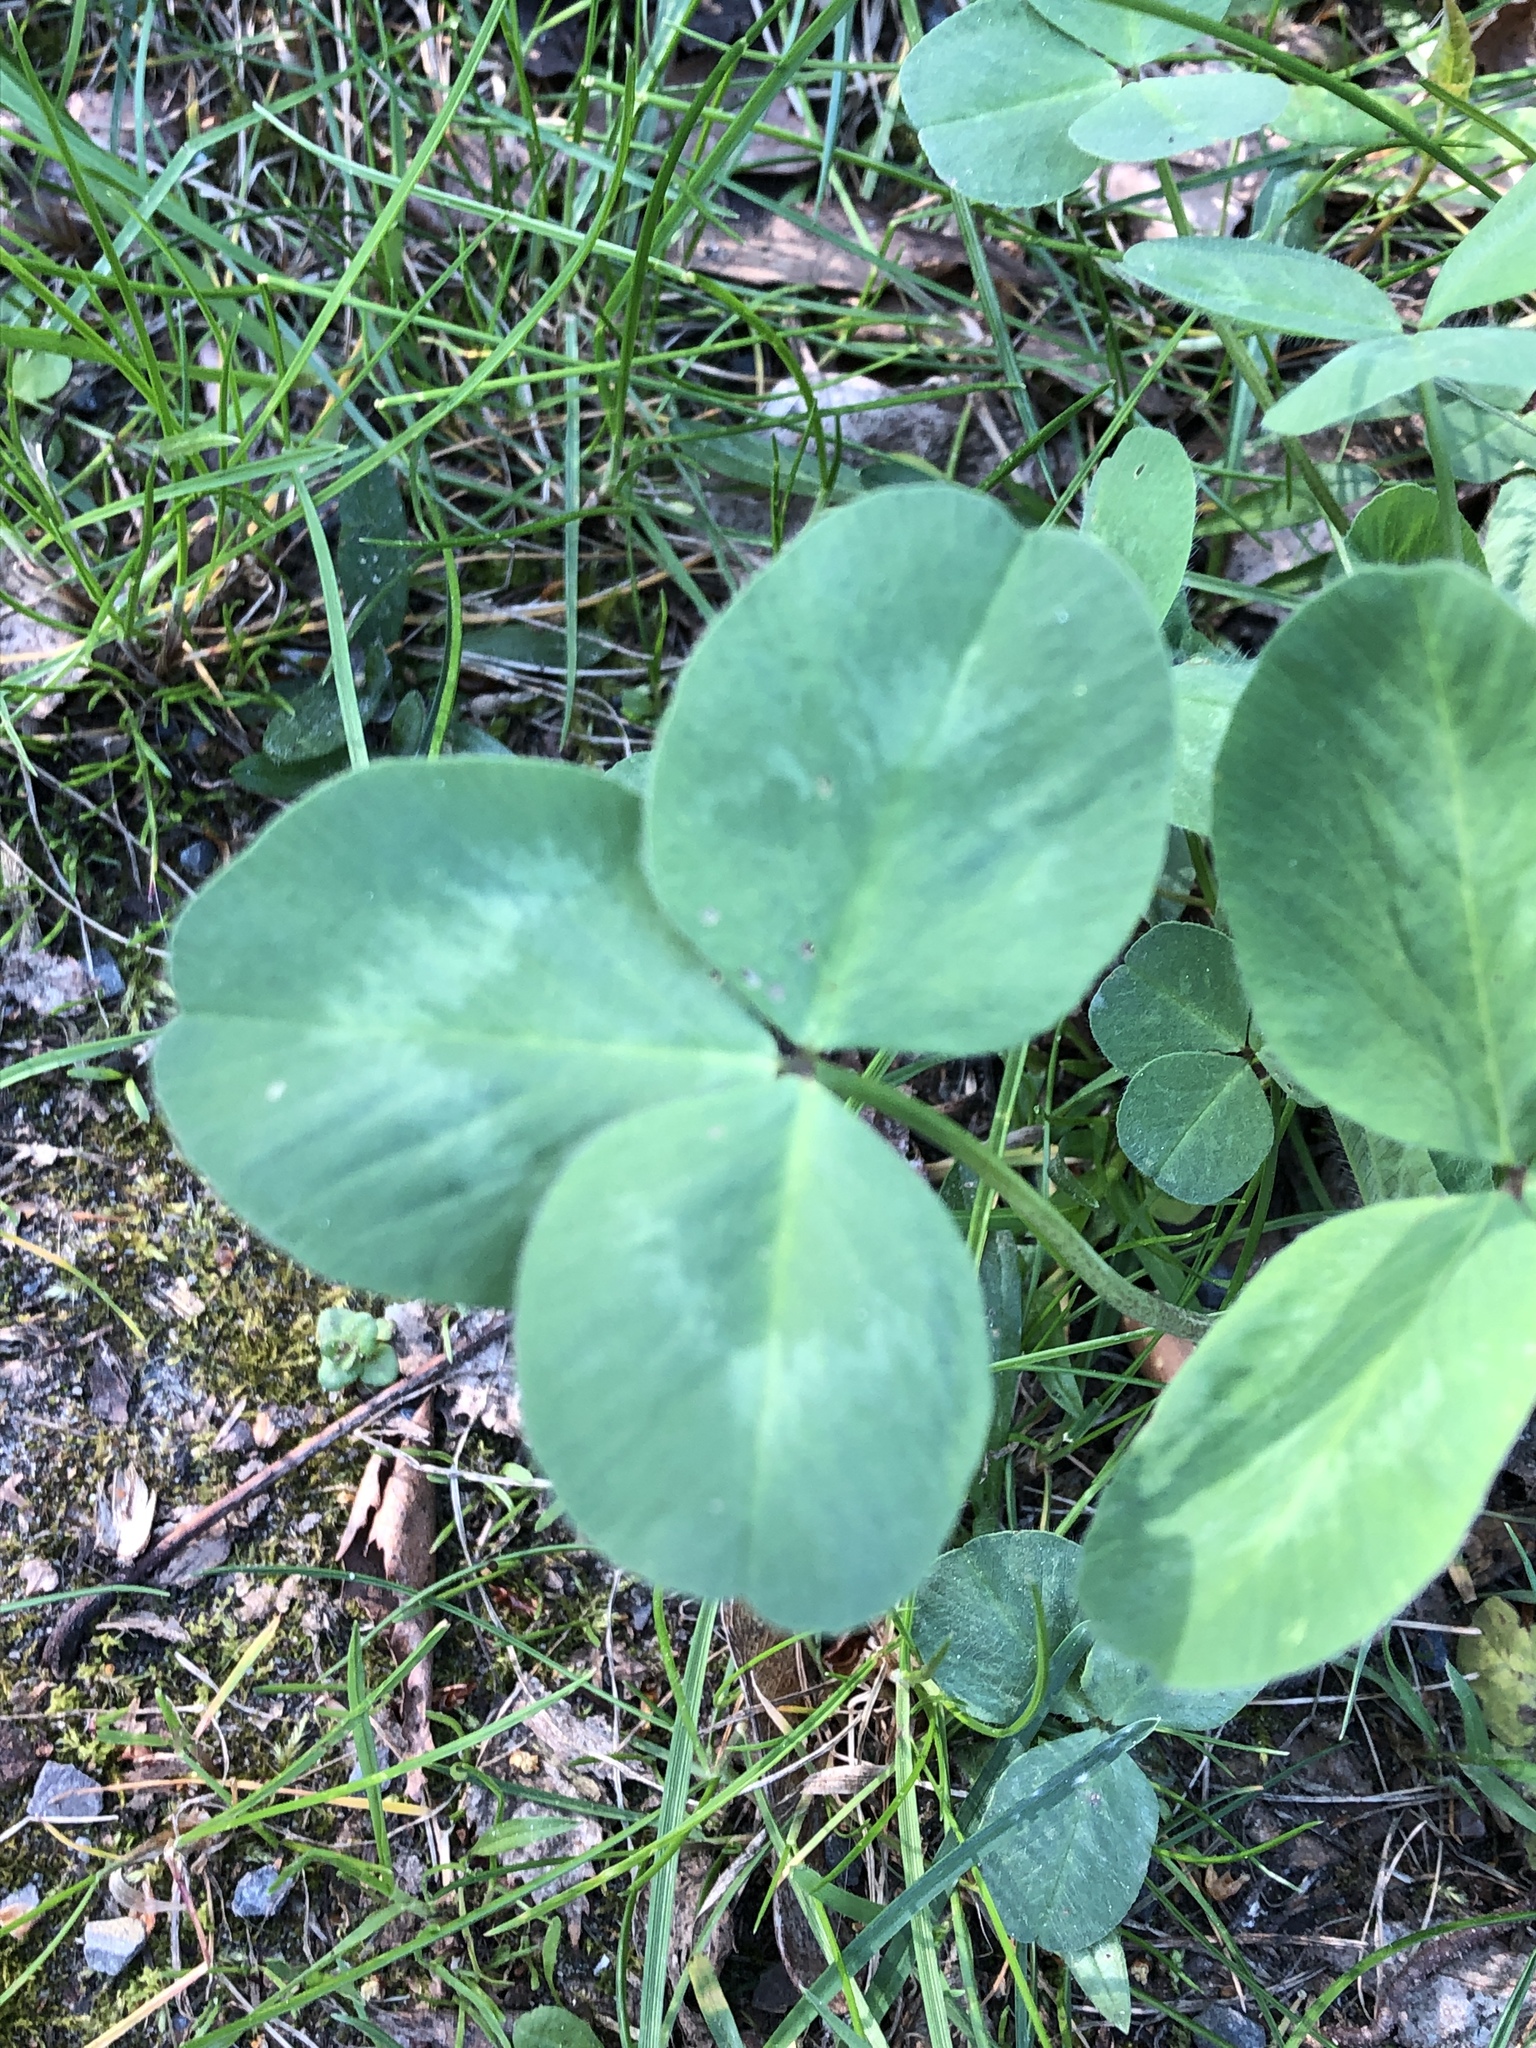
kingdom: Plantae
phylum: Tracheophyta
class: Magnoliopsida
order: Fabales
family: Fabaceae
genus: Trifolium
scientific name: Trifolium repens
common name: White clover
